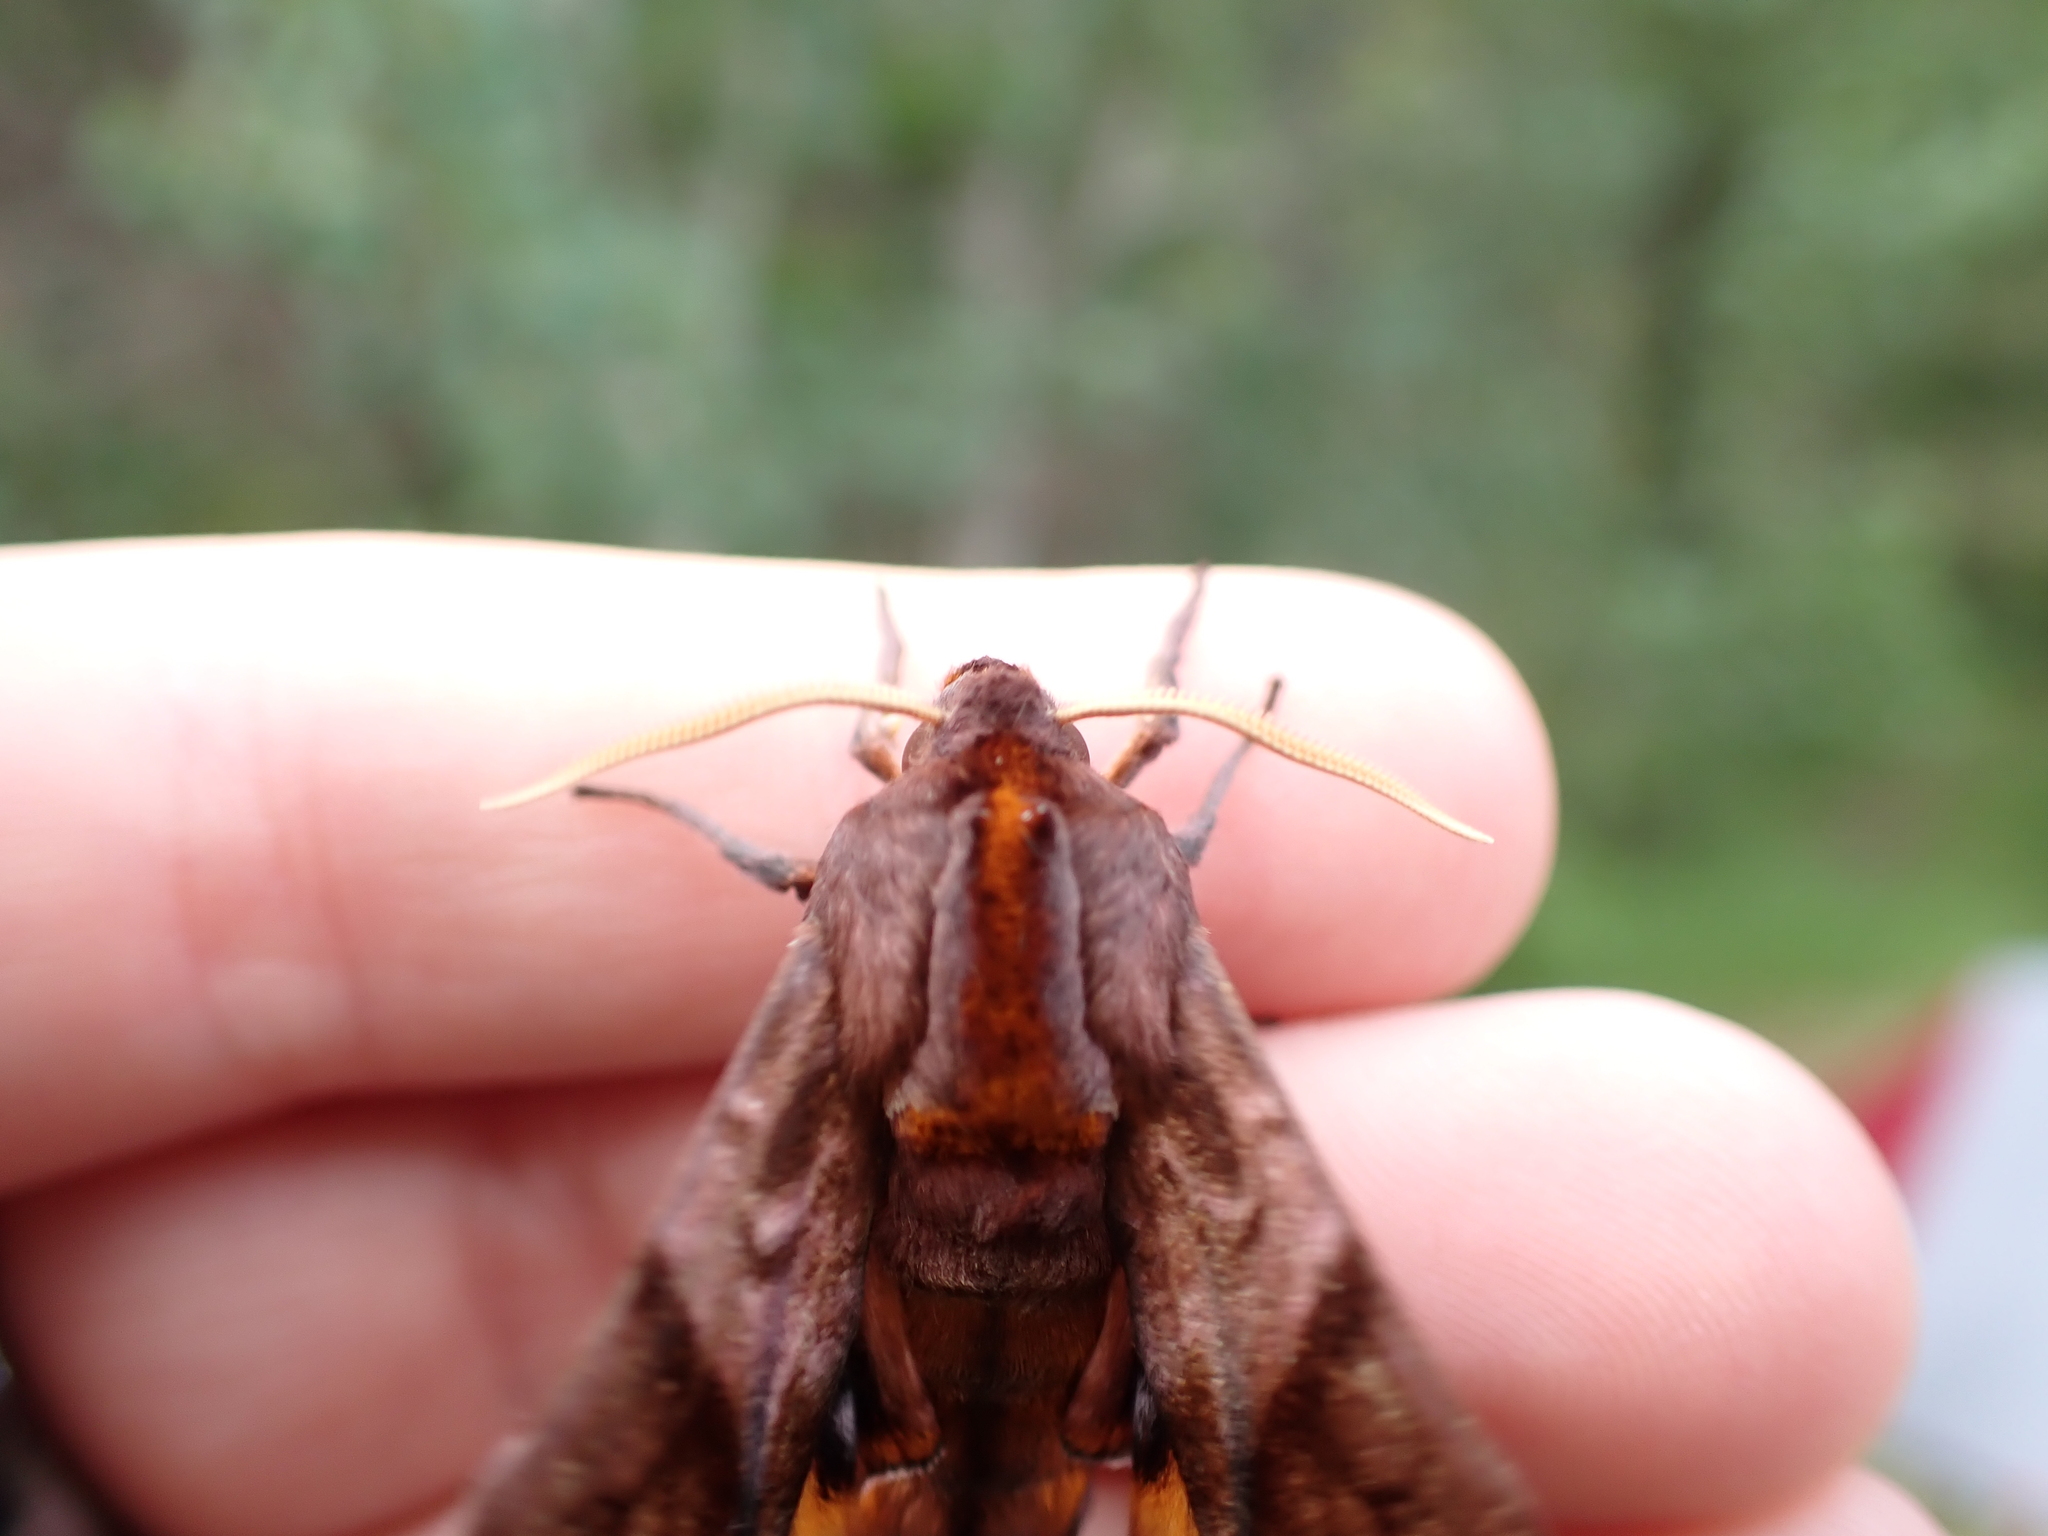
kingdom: Animalia
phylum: Arthropoda
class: Insecta
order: Lepidoptera
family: Sphingidae
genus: Paonias
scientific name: Paonias myops
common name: Small-eyed sphinx
